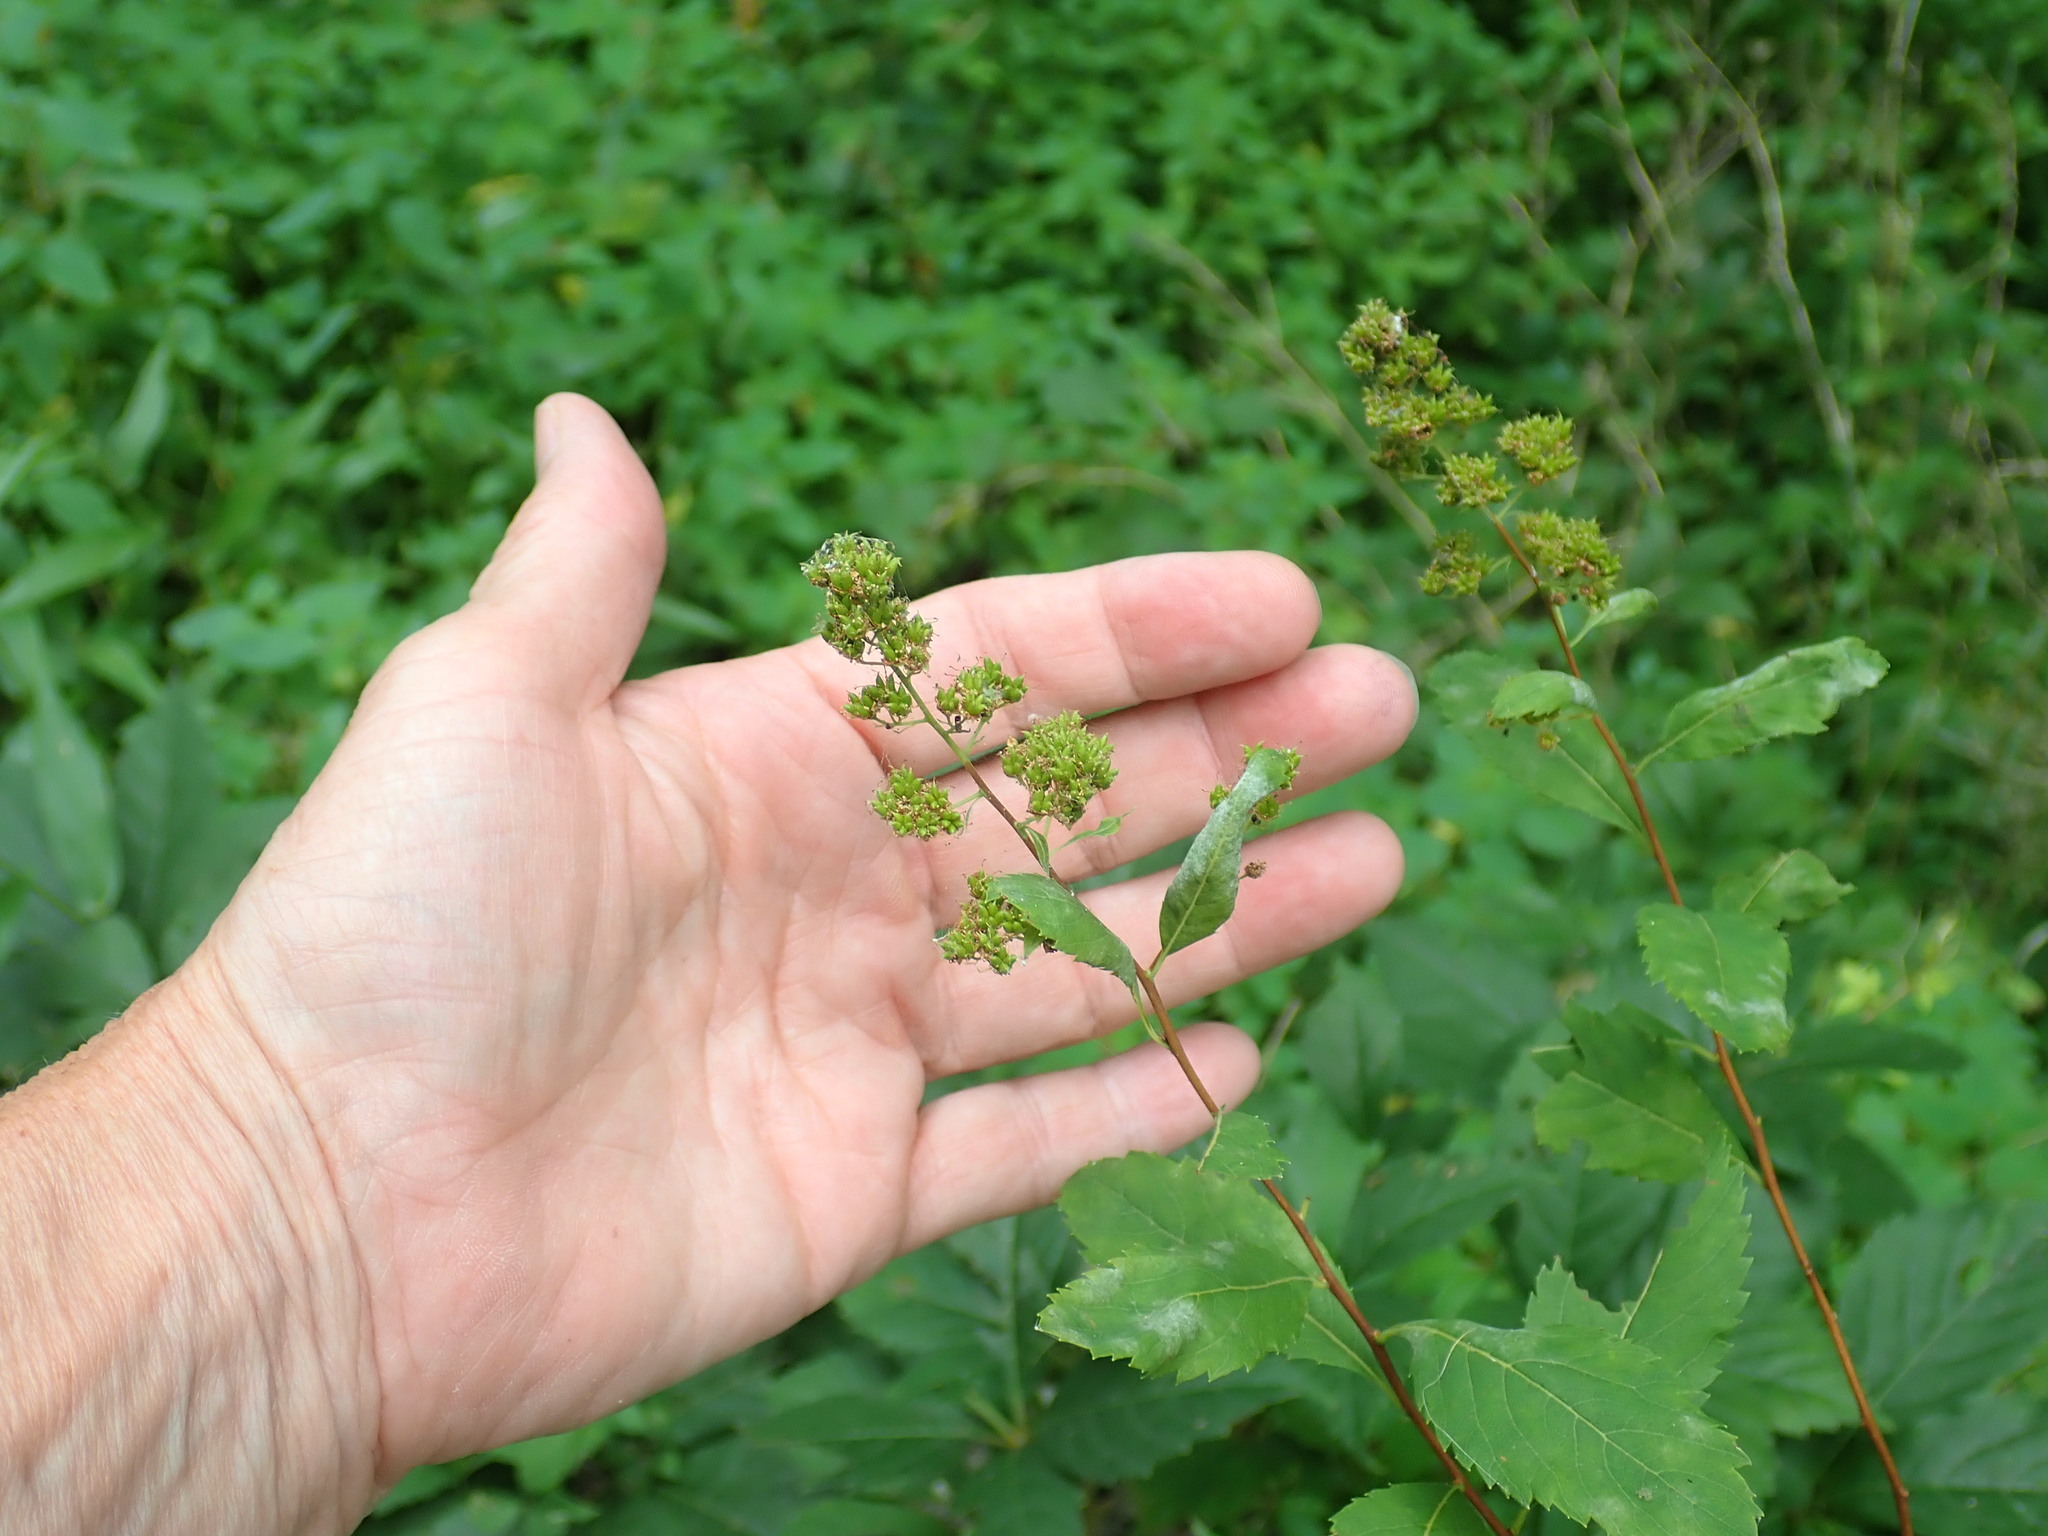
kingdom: Plantae
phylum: Tracheophyta
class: Magnoliopsida
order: Rosales
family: Rosaceae
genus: Spiraea
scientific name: Spiraea alba
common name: Pale bridewort
